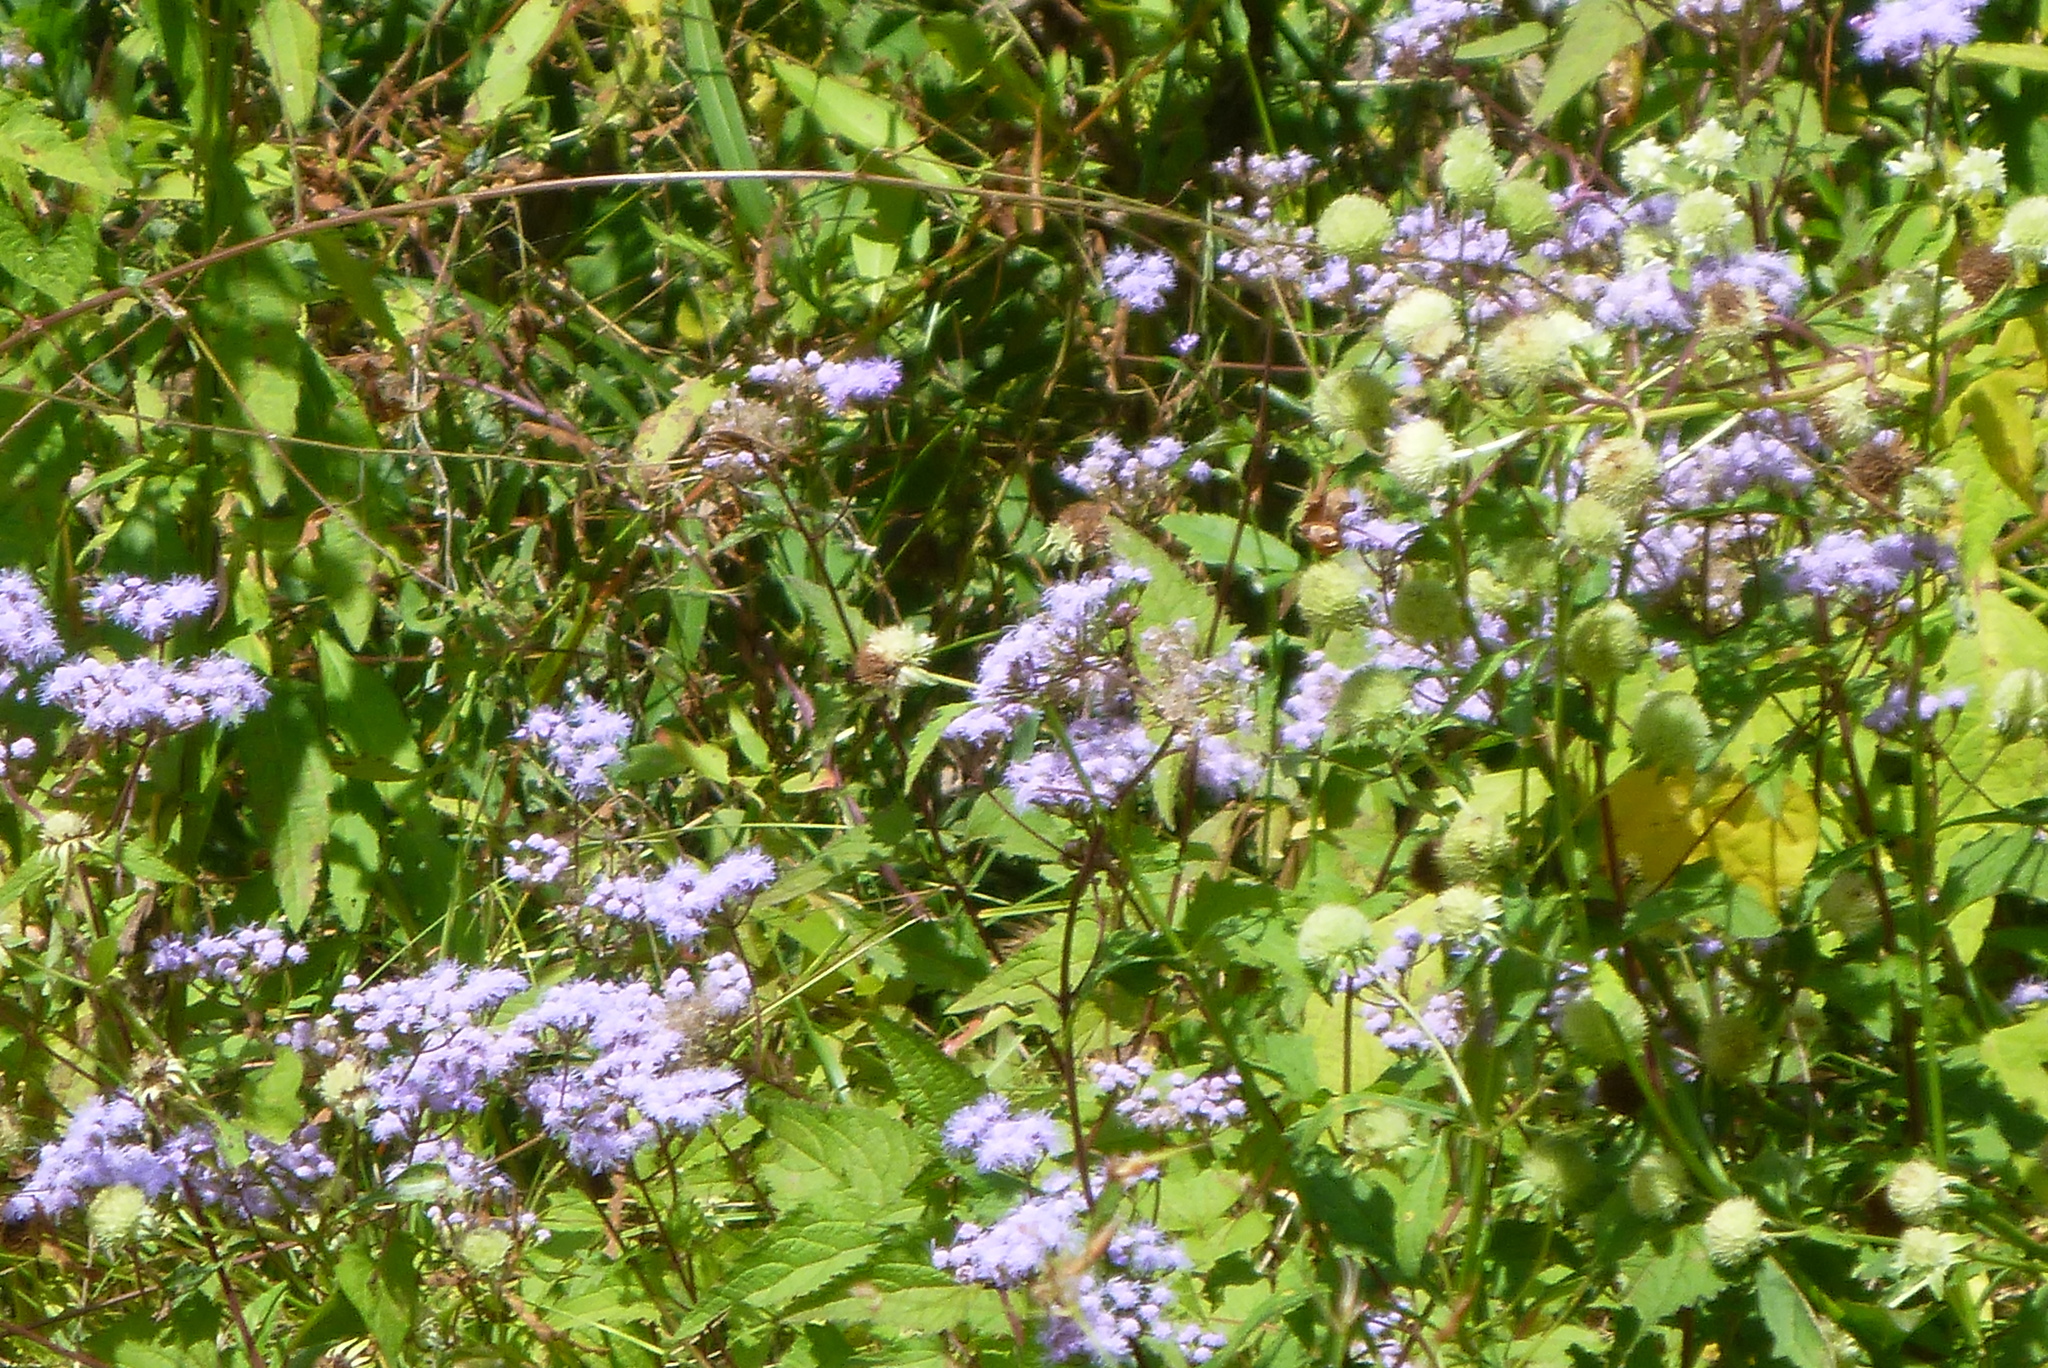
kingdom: Plantae
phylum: Tracheophyta
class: Magnoliopsida
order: Asterales
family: Asteraceae
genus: Conoclinium
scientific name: Conoclinium coelestinum
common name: Blue mistflower
